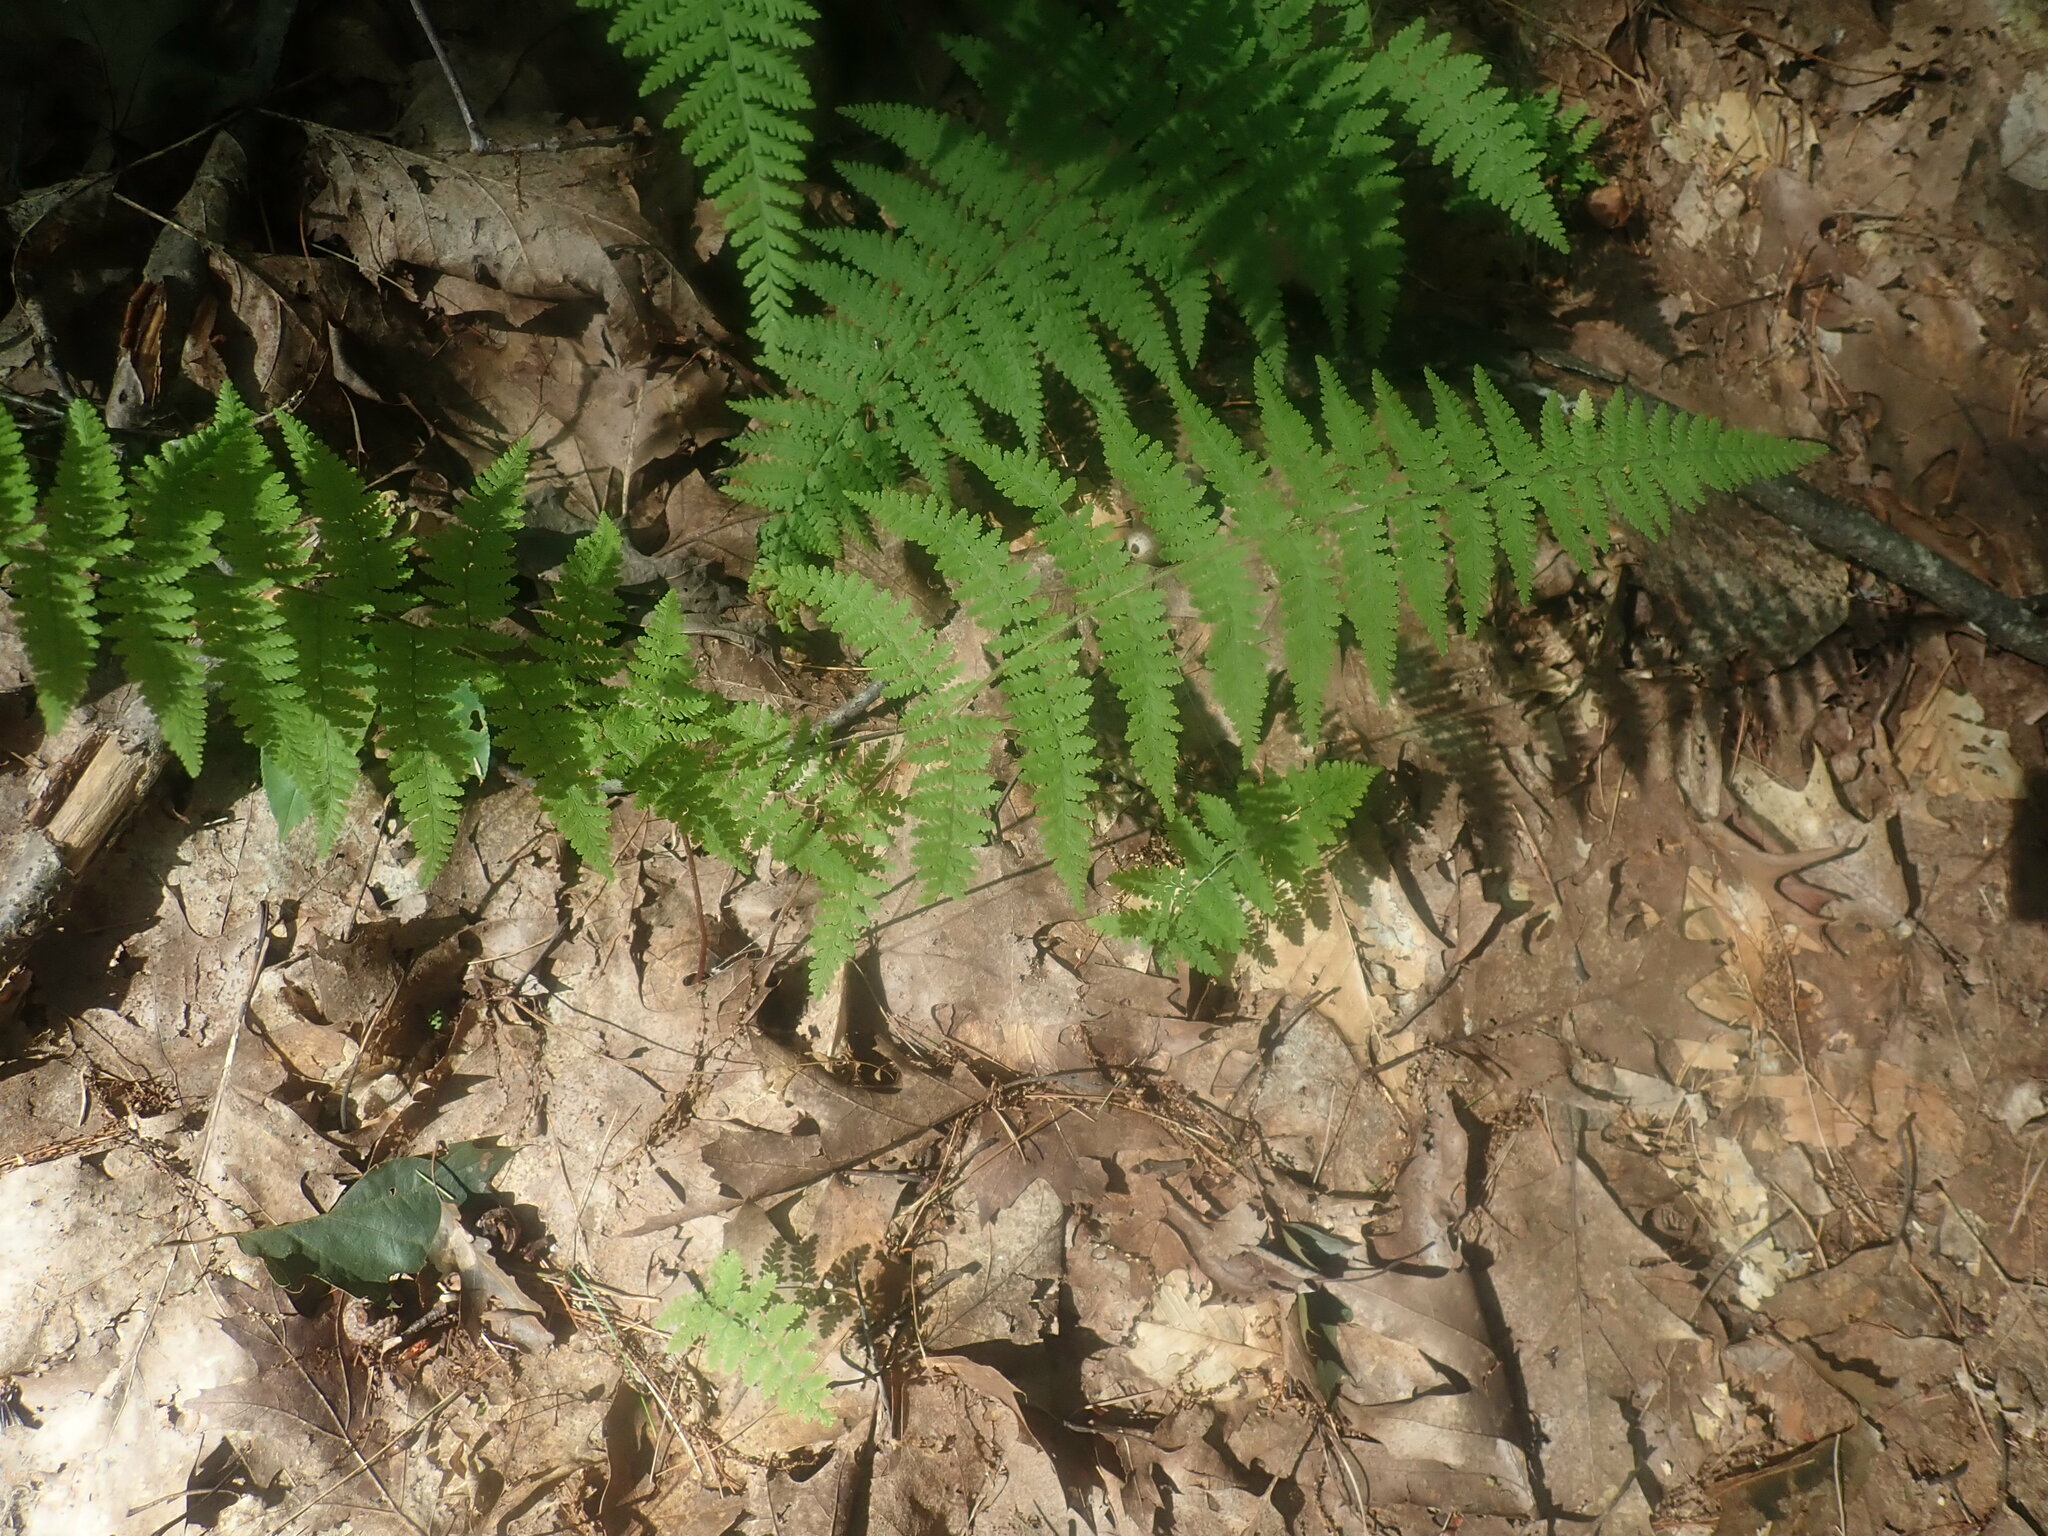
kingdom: Plantae
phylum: Tracheophyta
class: Polypodiopsida
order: Polypodiales
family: Dennstaedtiaceae
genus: Sitobolium
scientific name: Sitobolium punctilobum
